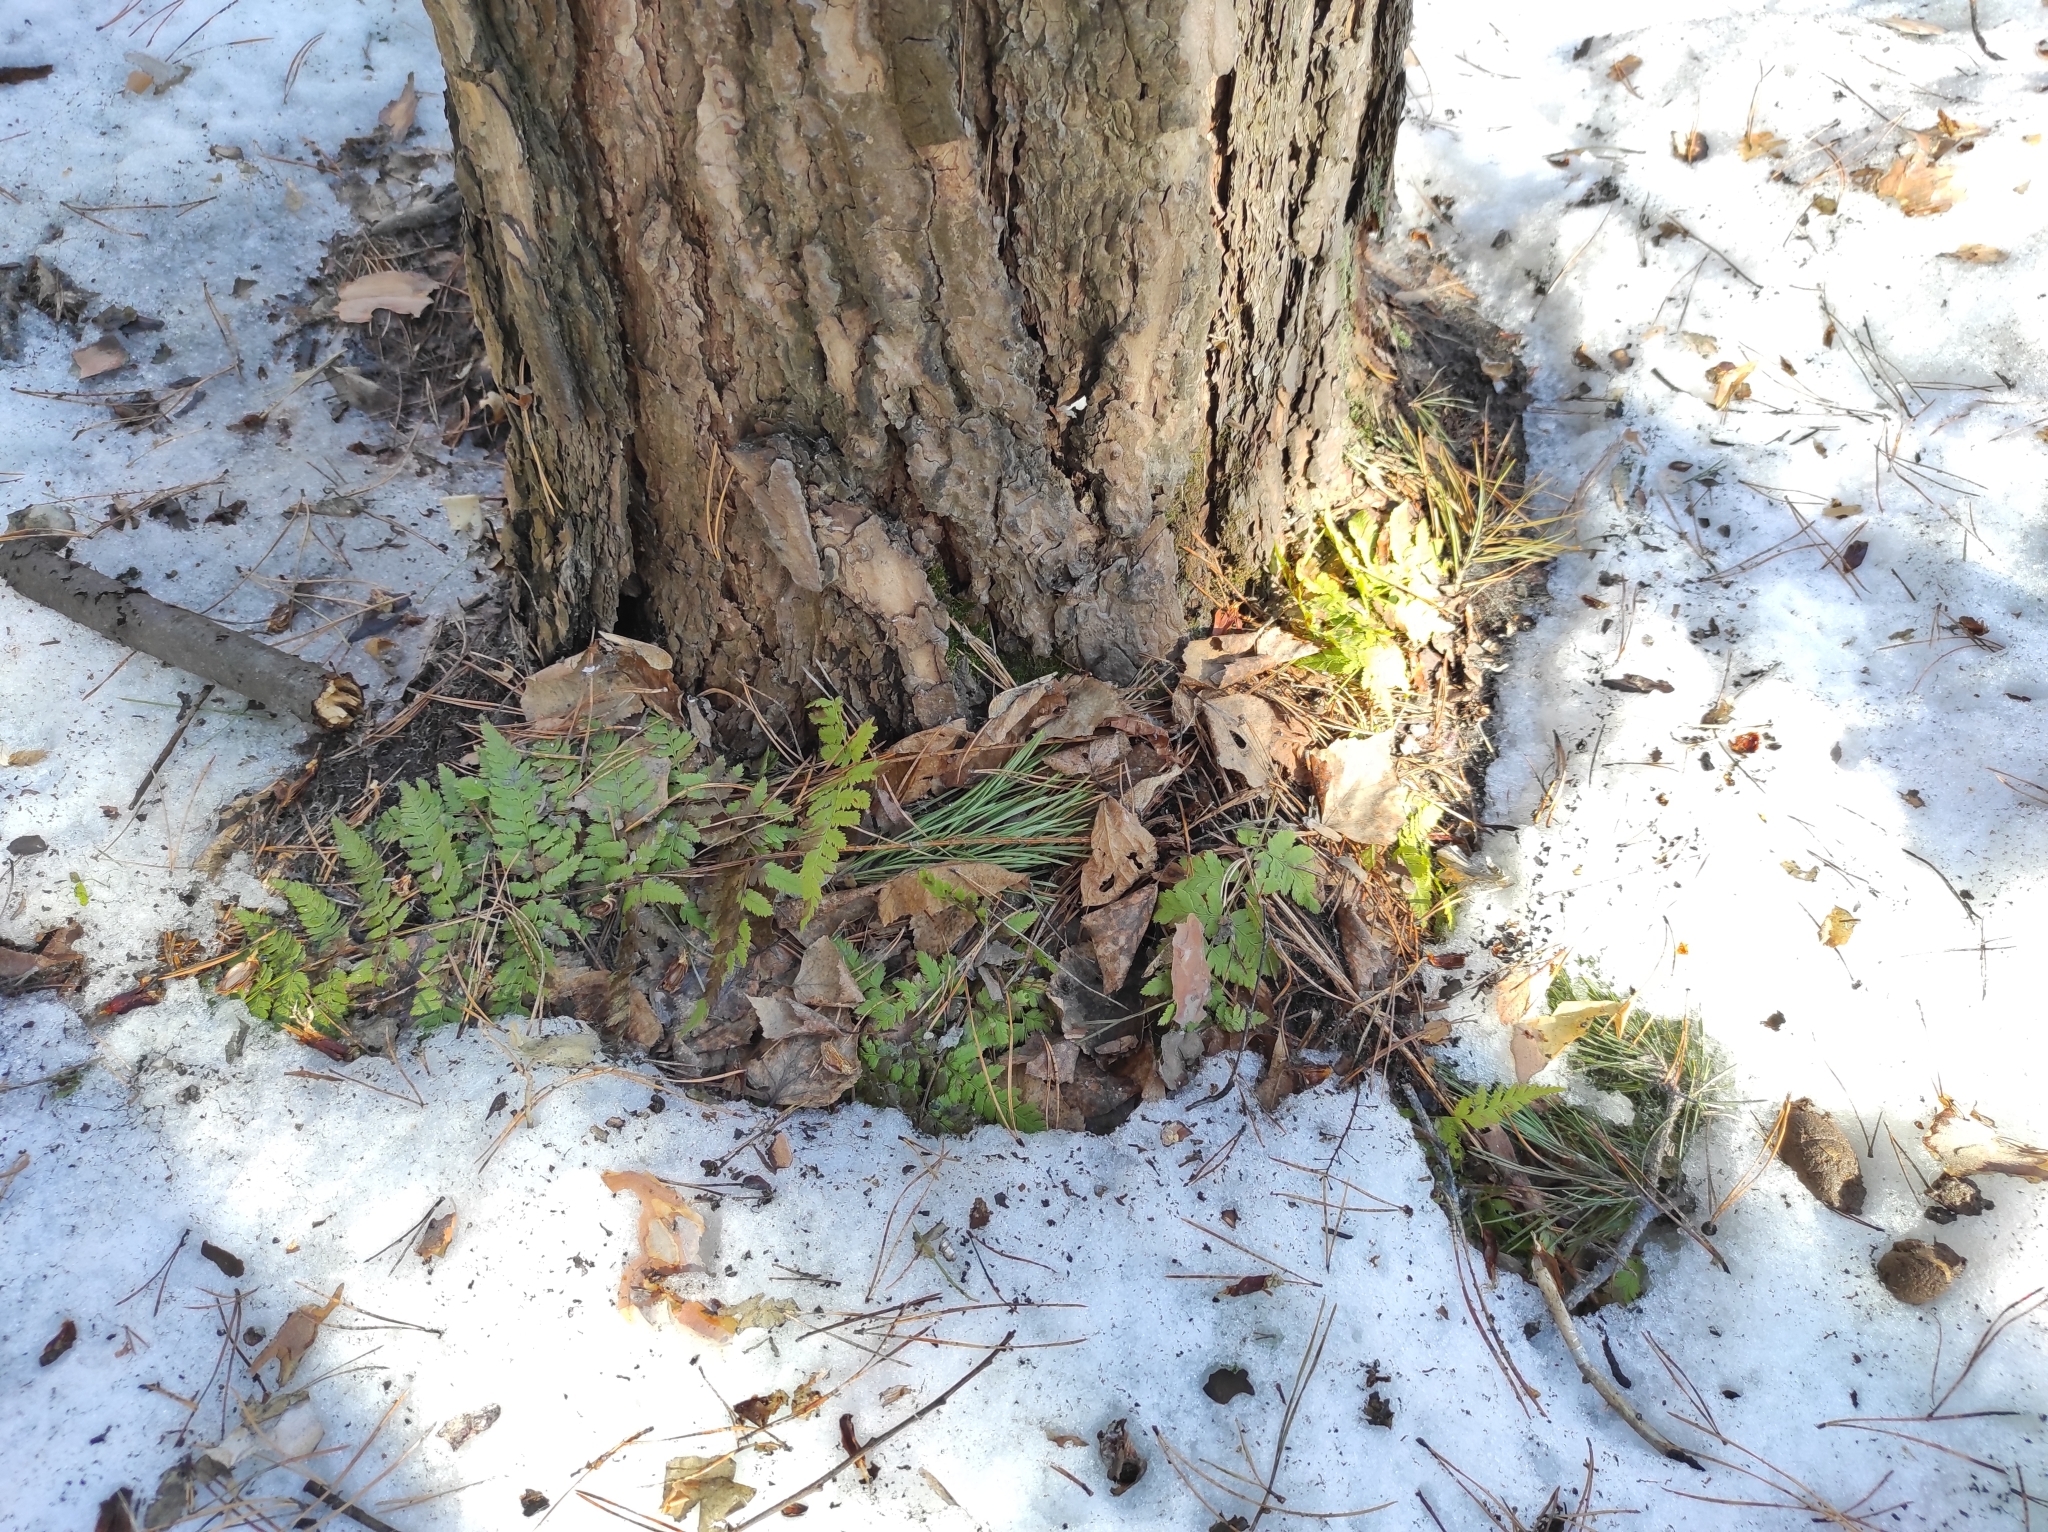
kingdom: Plantae
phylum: Tracheophyta
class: Polypodiopsida
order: Polypodiales
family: Dryopteridaceae
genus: Dryopteris
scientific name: Dryopteris carthusiana
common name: Narrow buckler-fern
